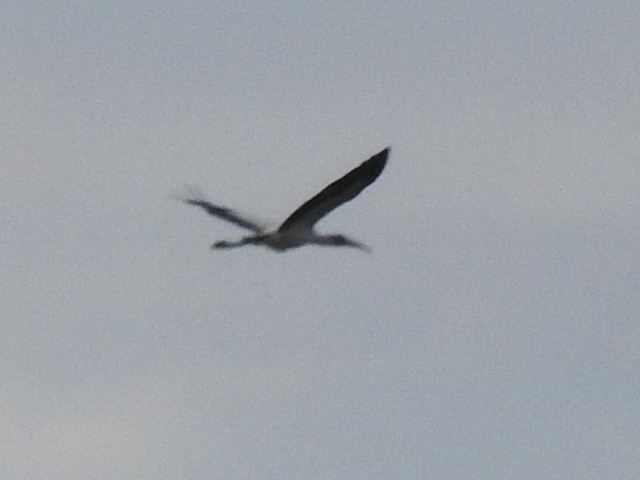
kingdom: Animalia
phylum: Chordata
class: Aves
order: Ciconiiformes
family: Ciconiidae
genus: Mycteria
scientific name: Mycteria americana
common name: Wood stork
